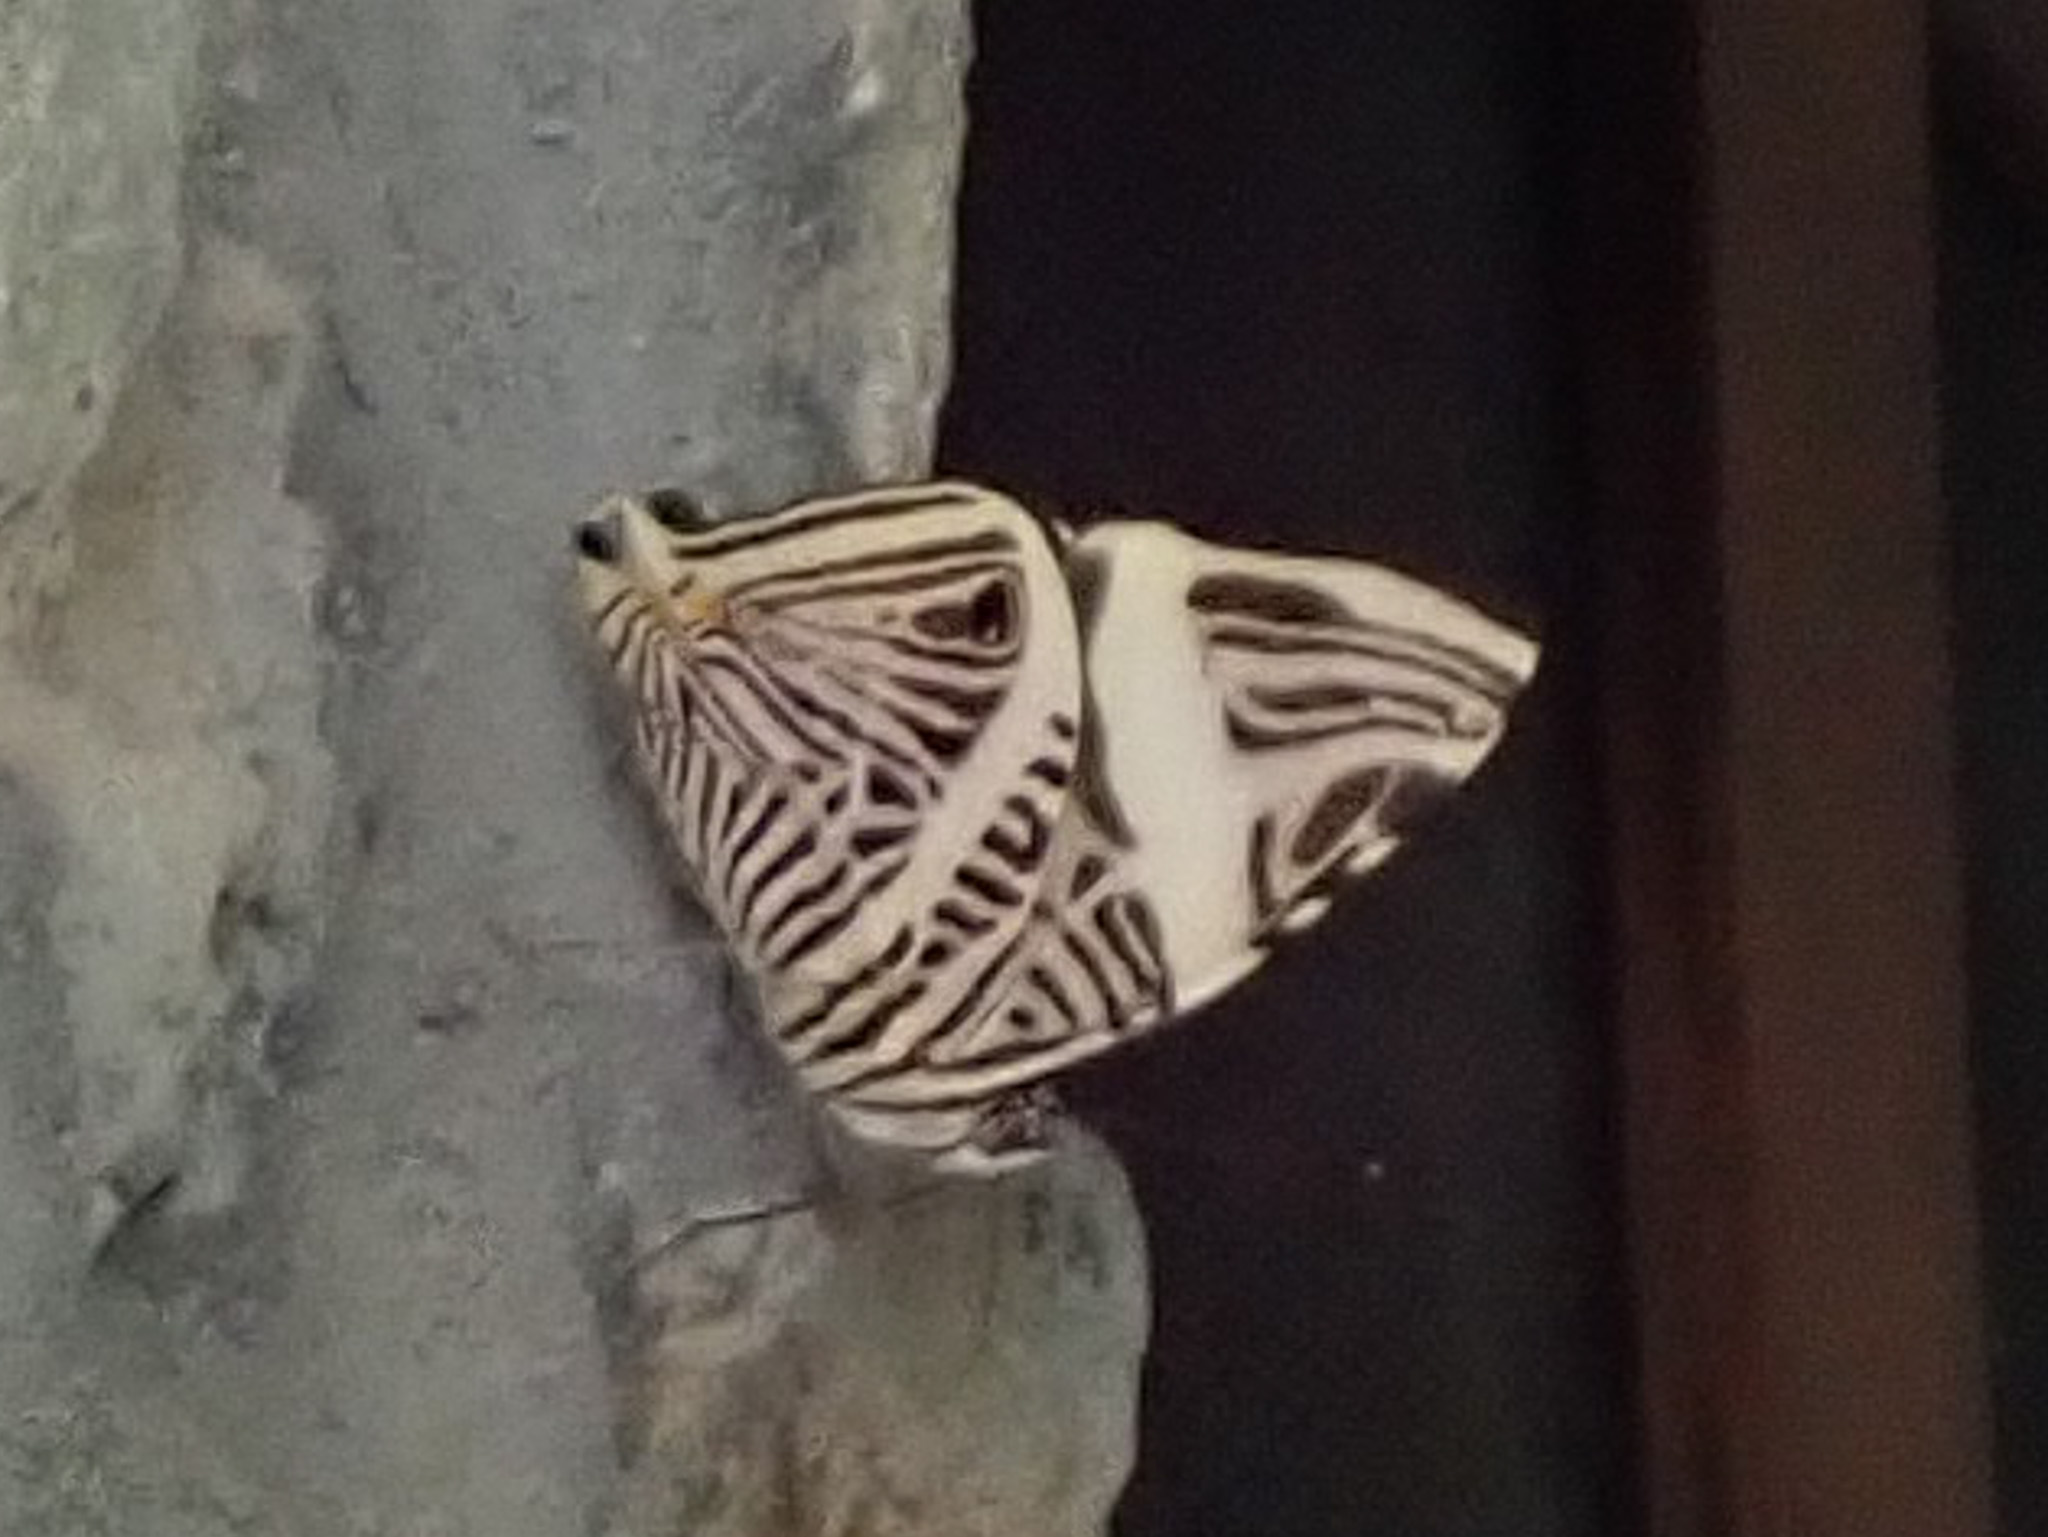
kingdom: Animalia
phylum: Arthropoda
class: Insecta
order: Lepidoptera
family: Nymphalidae
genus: Colobura
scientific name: Colobura dirce
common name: Dirce beauty
